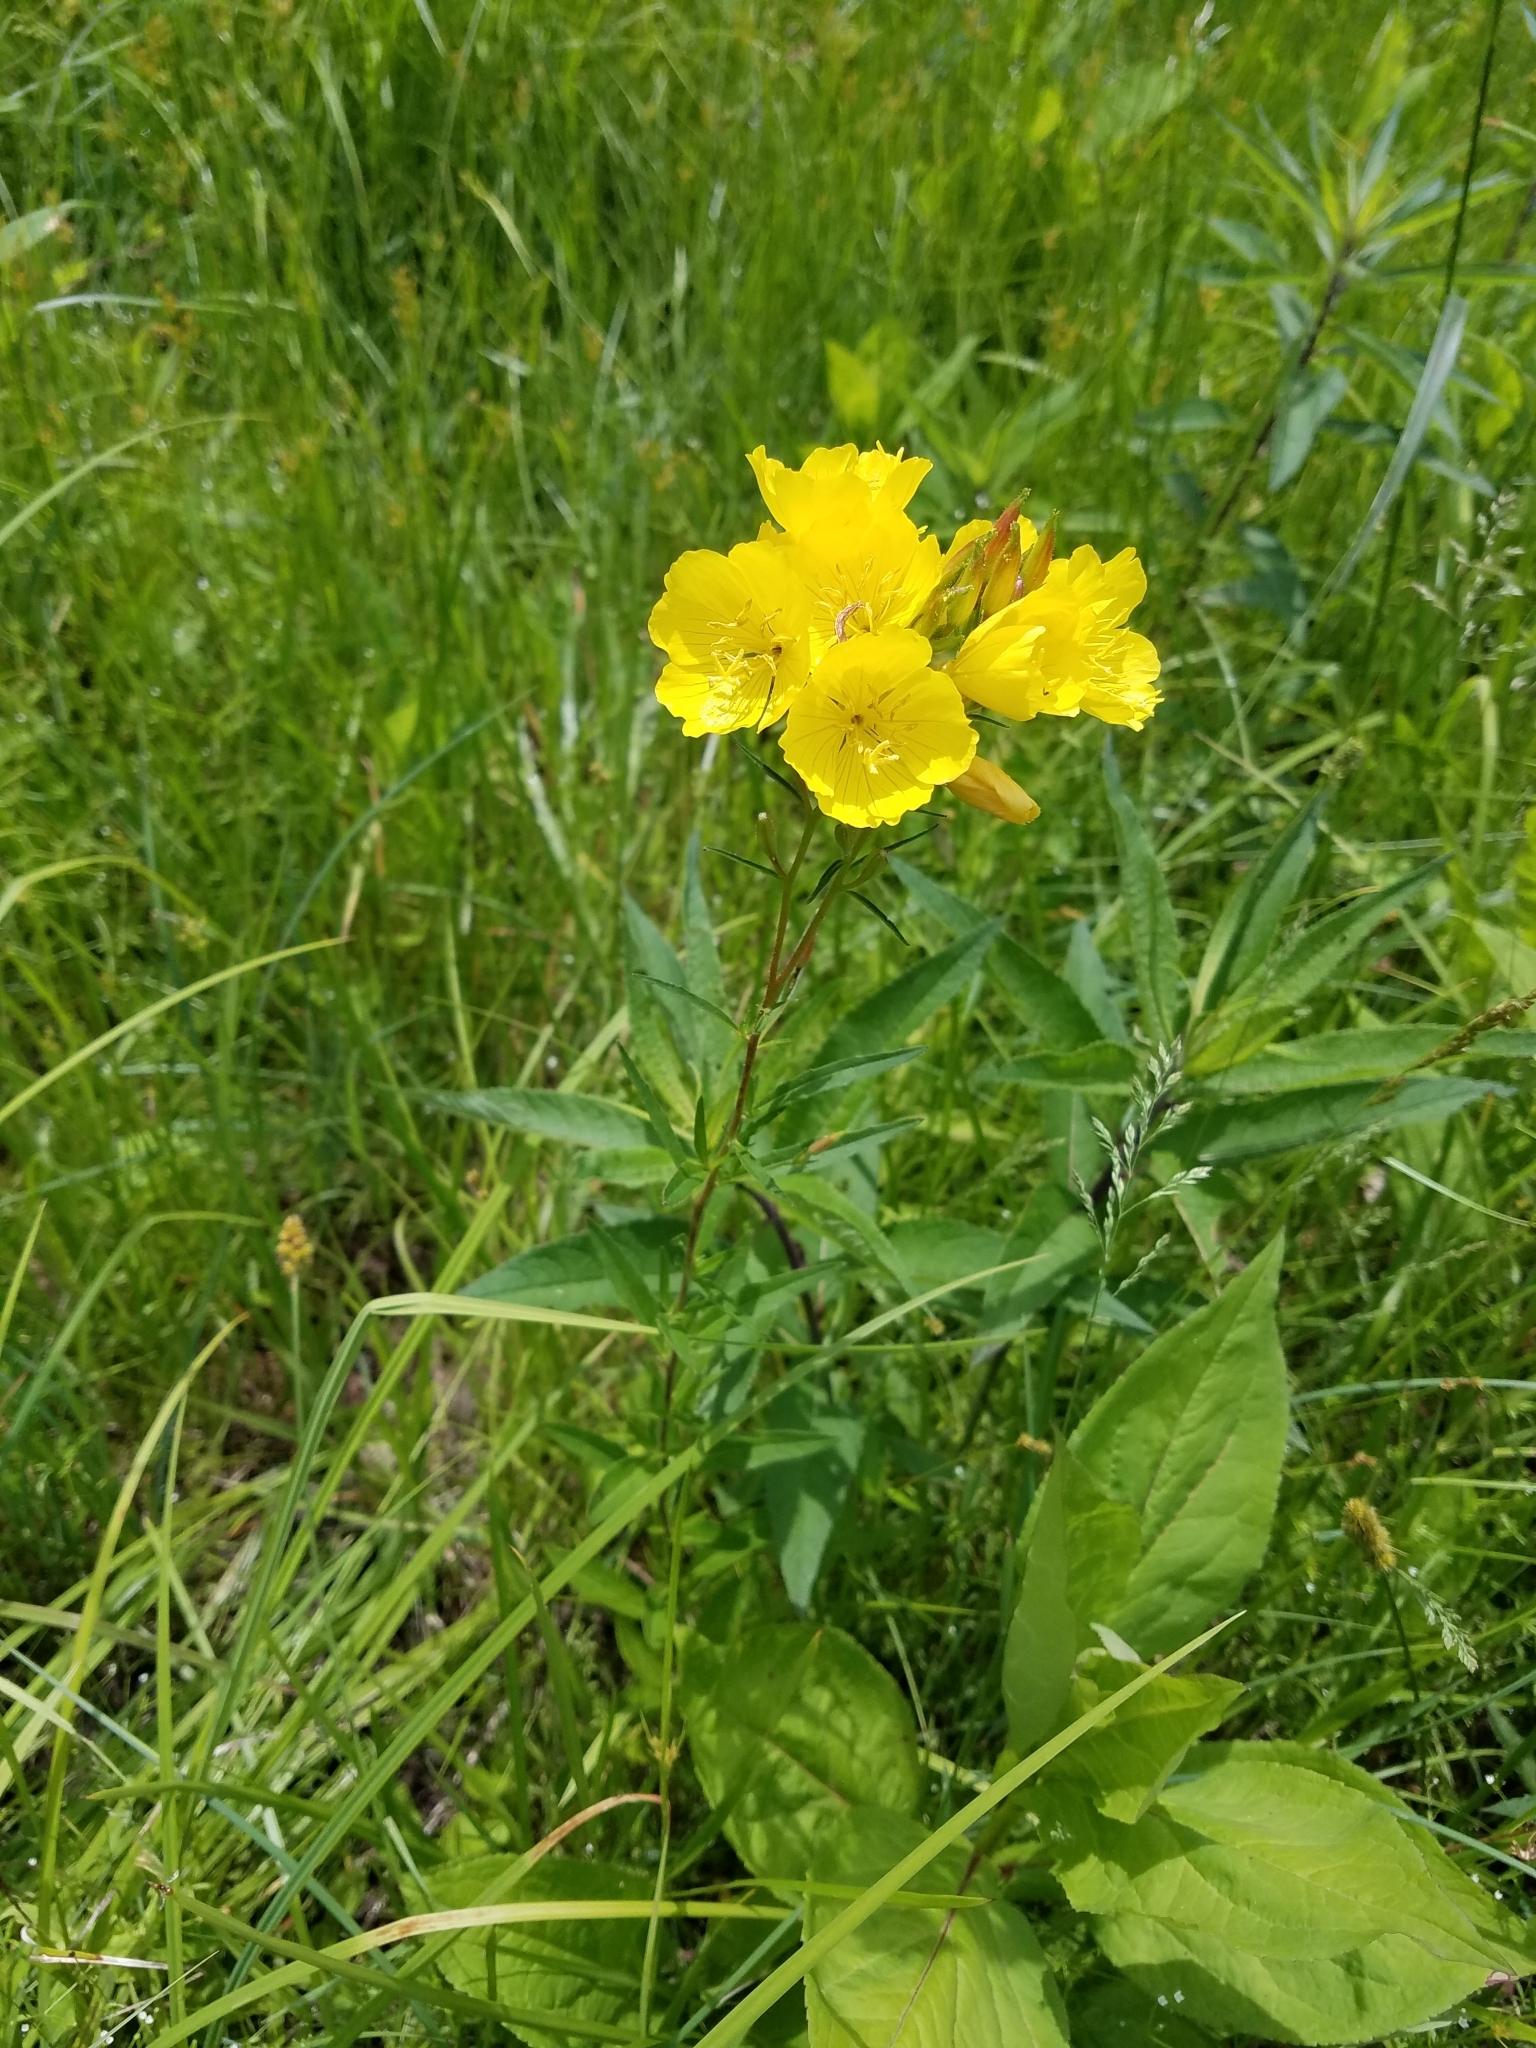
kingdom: Plantae
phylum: Tracheophyta
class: Magnoliopsida
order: Myrtales
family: Onagraceae
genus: Oenothera
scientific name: Oenothera tetragona
